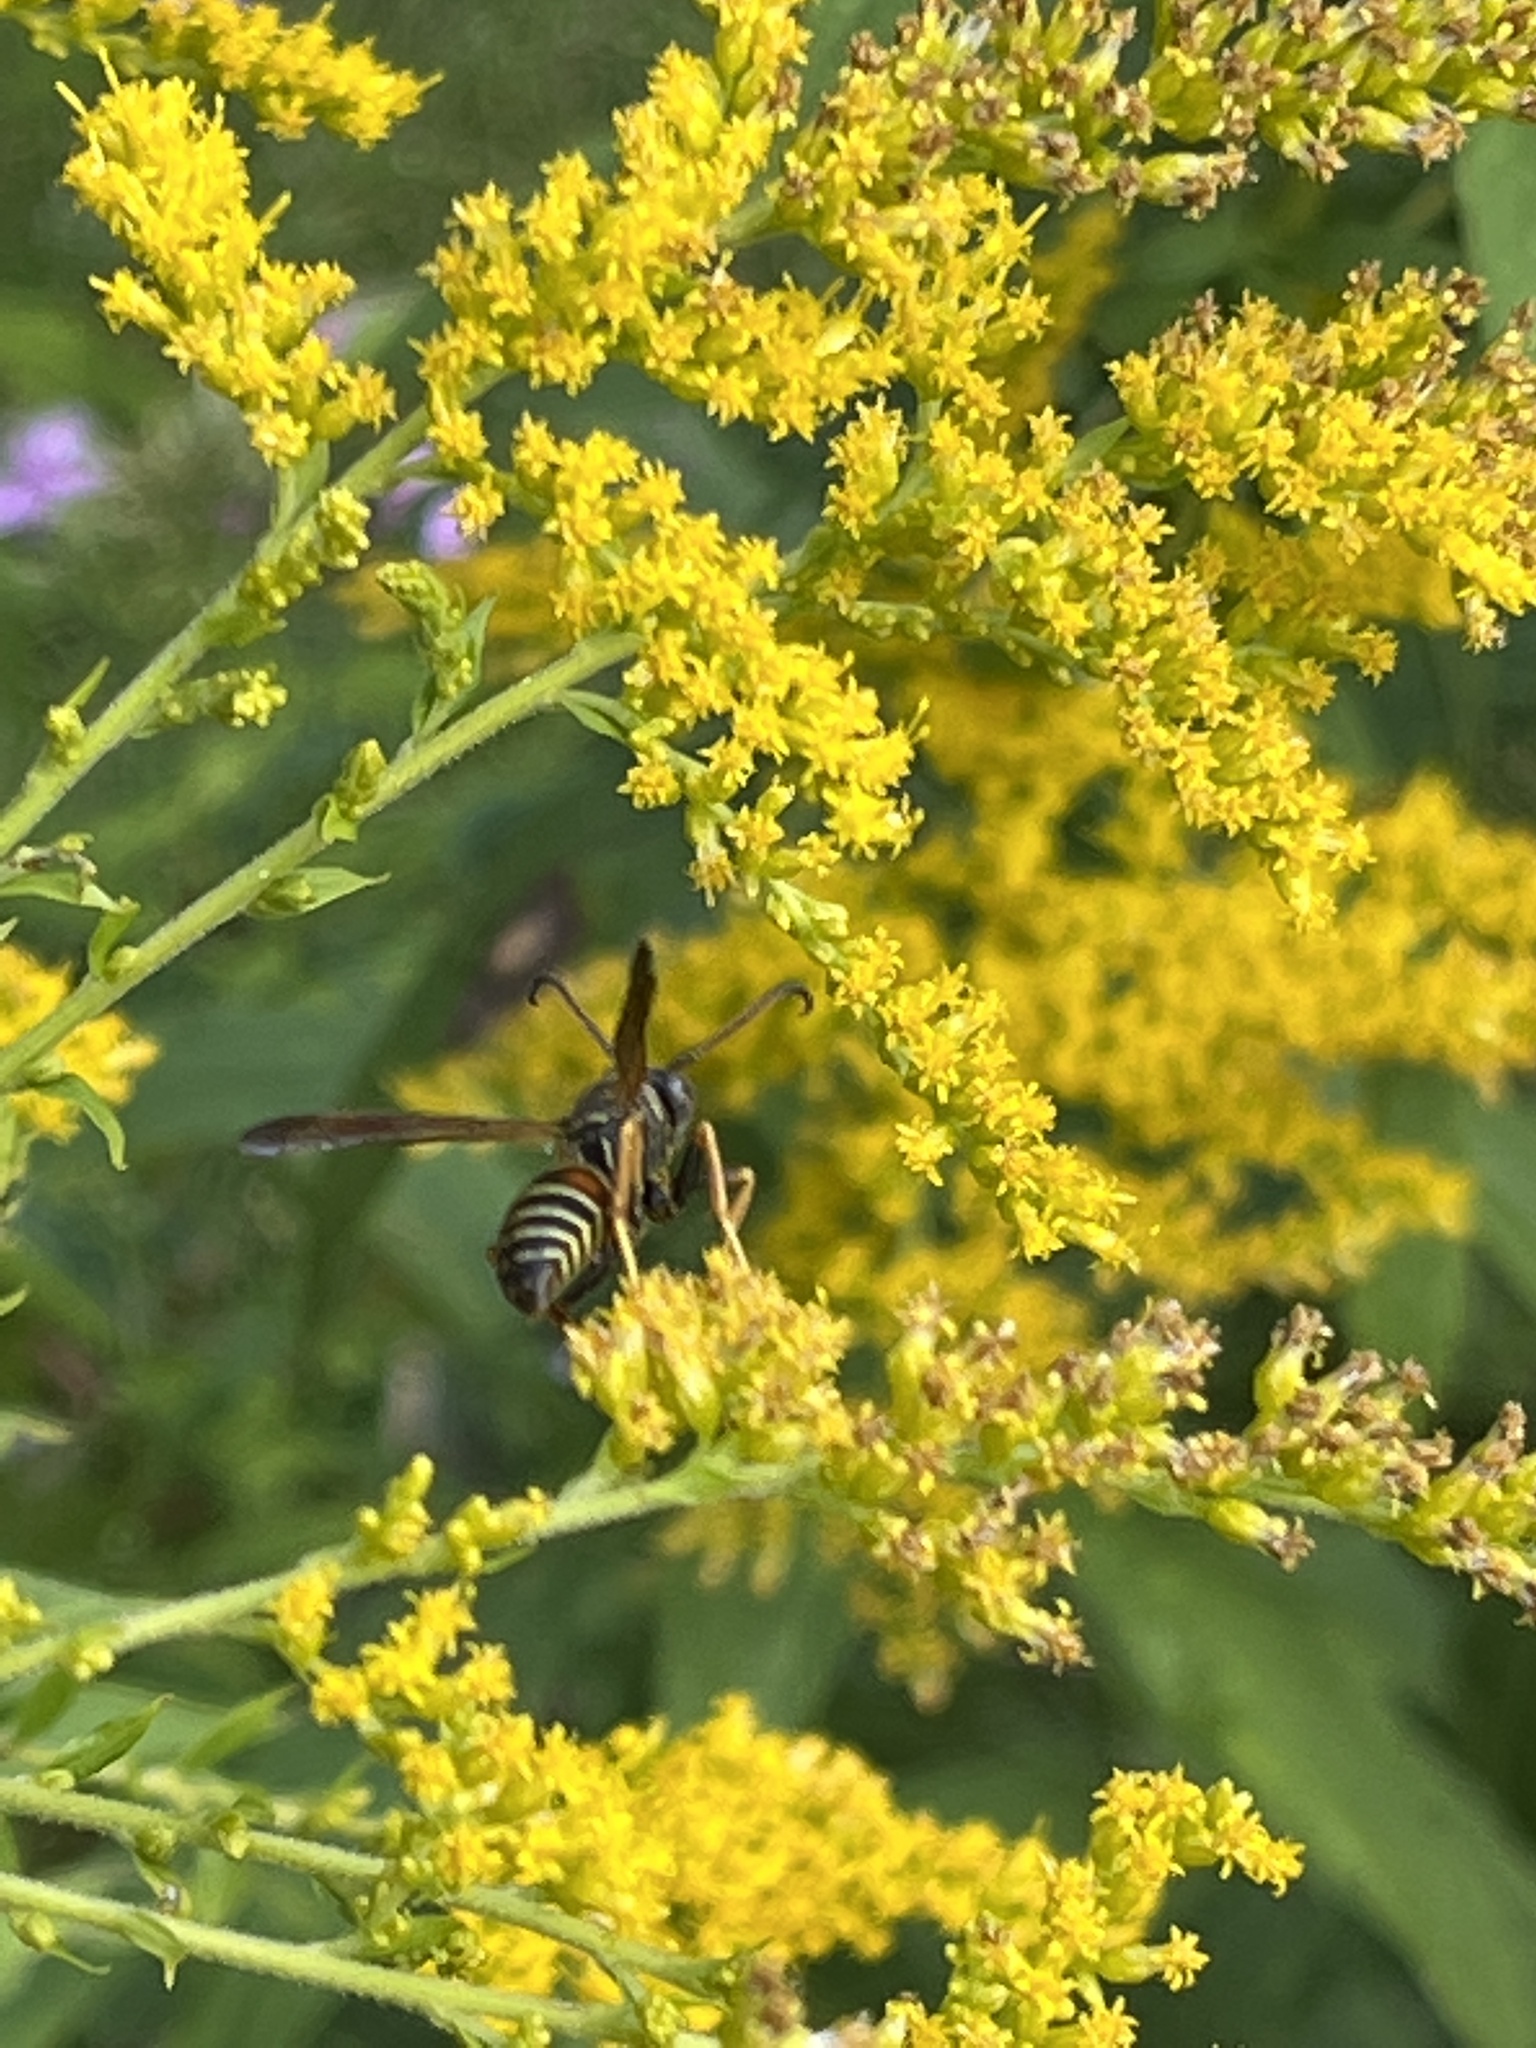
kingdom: Animalia
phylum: Arthropoda
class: Insecta
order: Hymenoptera
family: Eumenidae
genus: Polistes
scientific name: Polistes fuscatus
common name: Dark paper wasp
